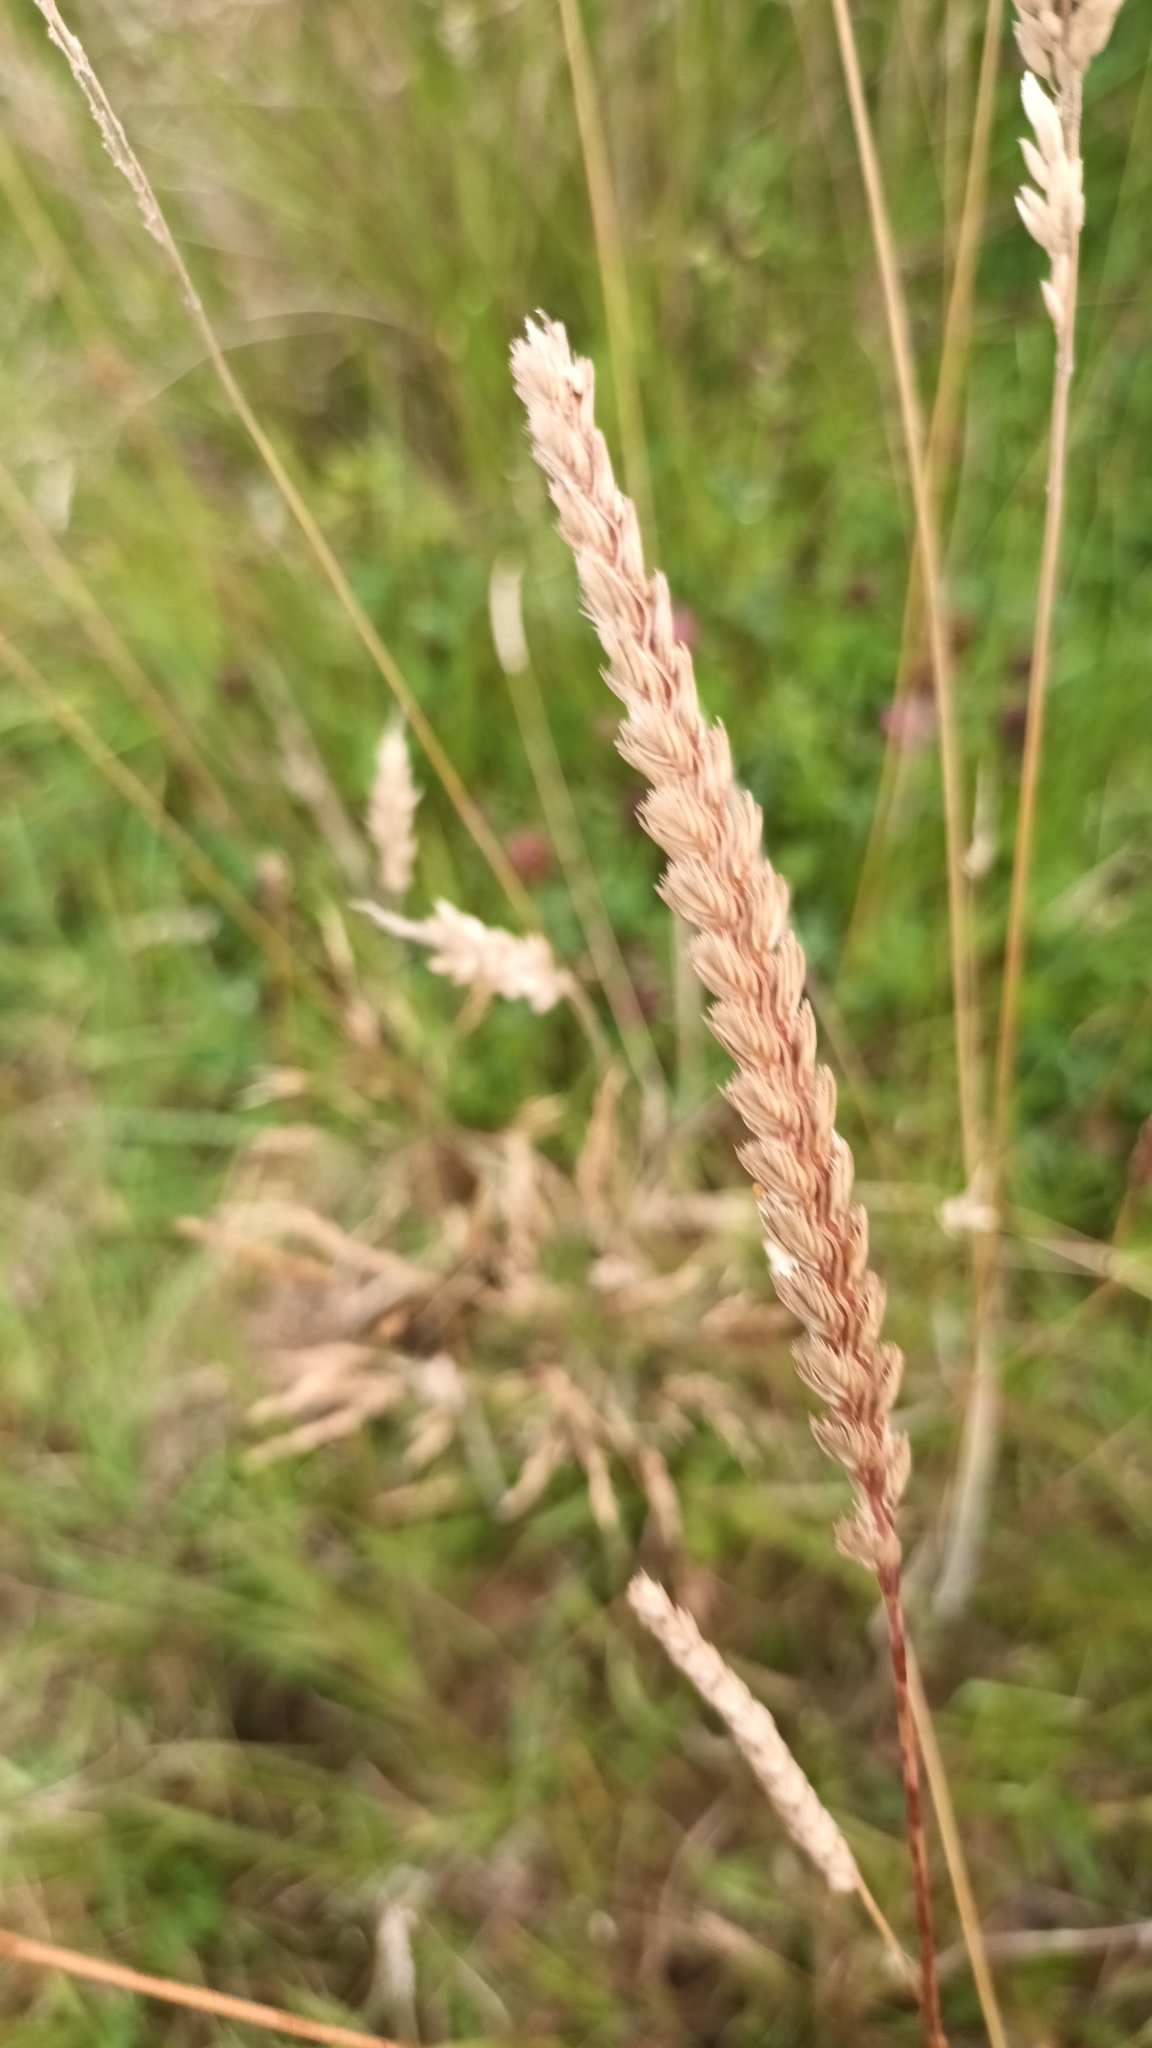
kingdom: Plantae
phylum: Tracheophyta
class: Liliopsida
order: Poales
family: Poaceae
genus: Cynosurus
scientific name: Cynosurus cristatus
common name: Crested dog's-tail
